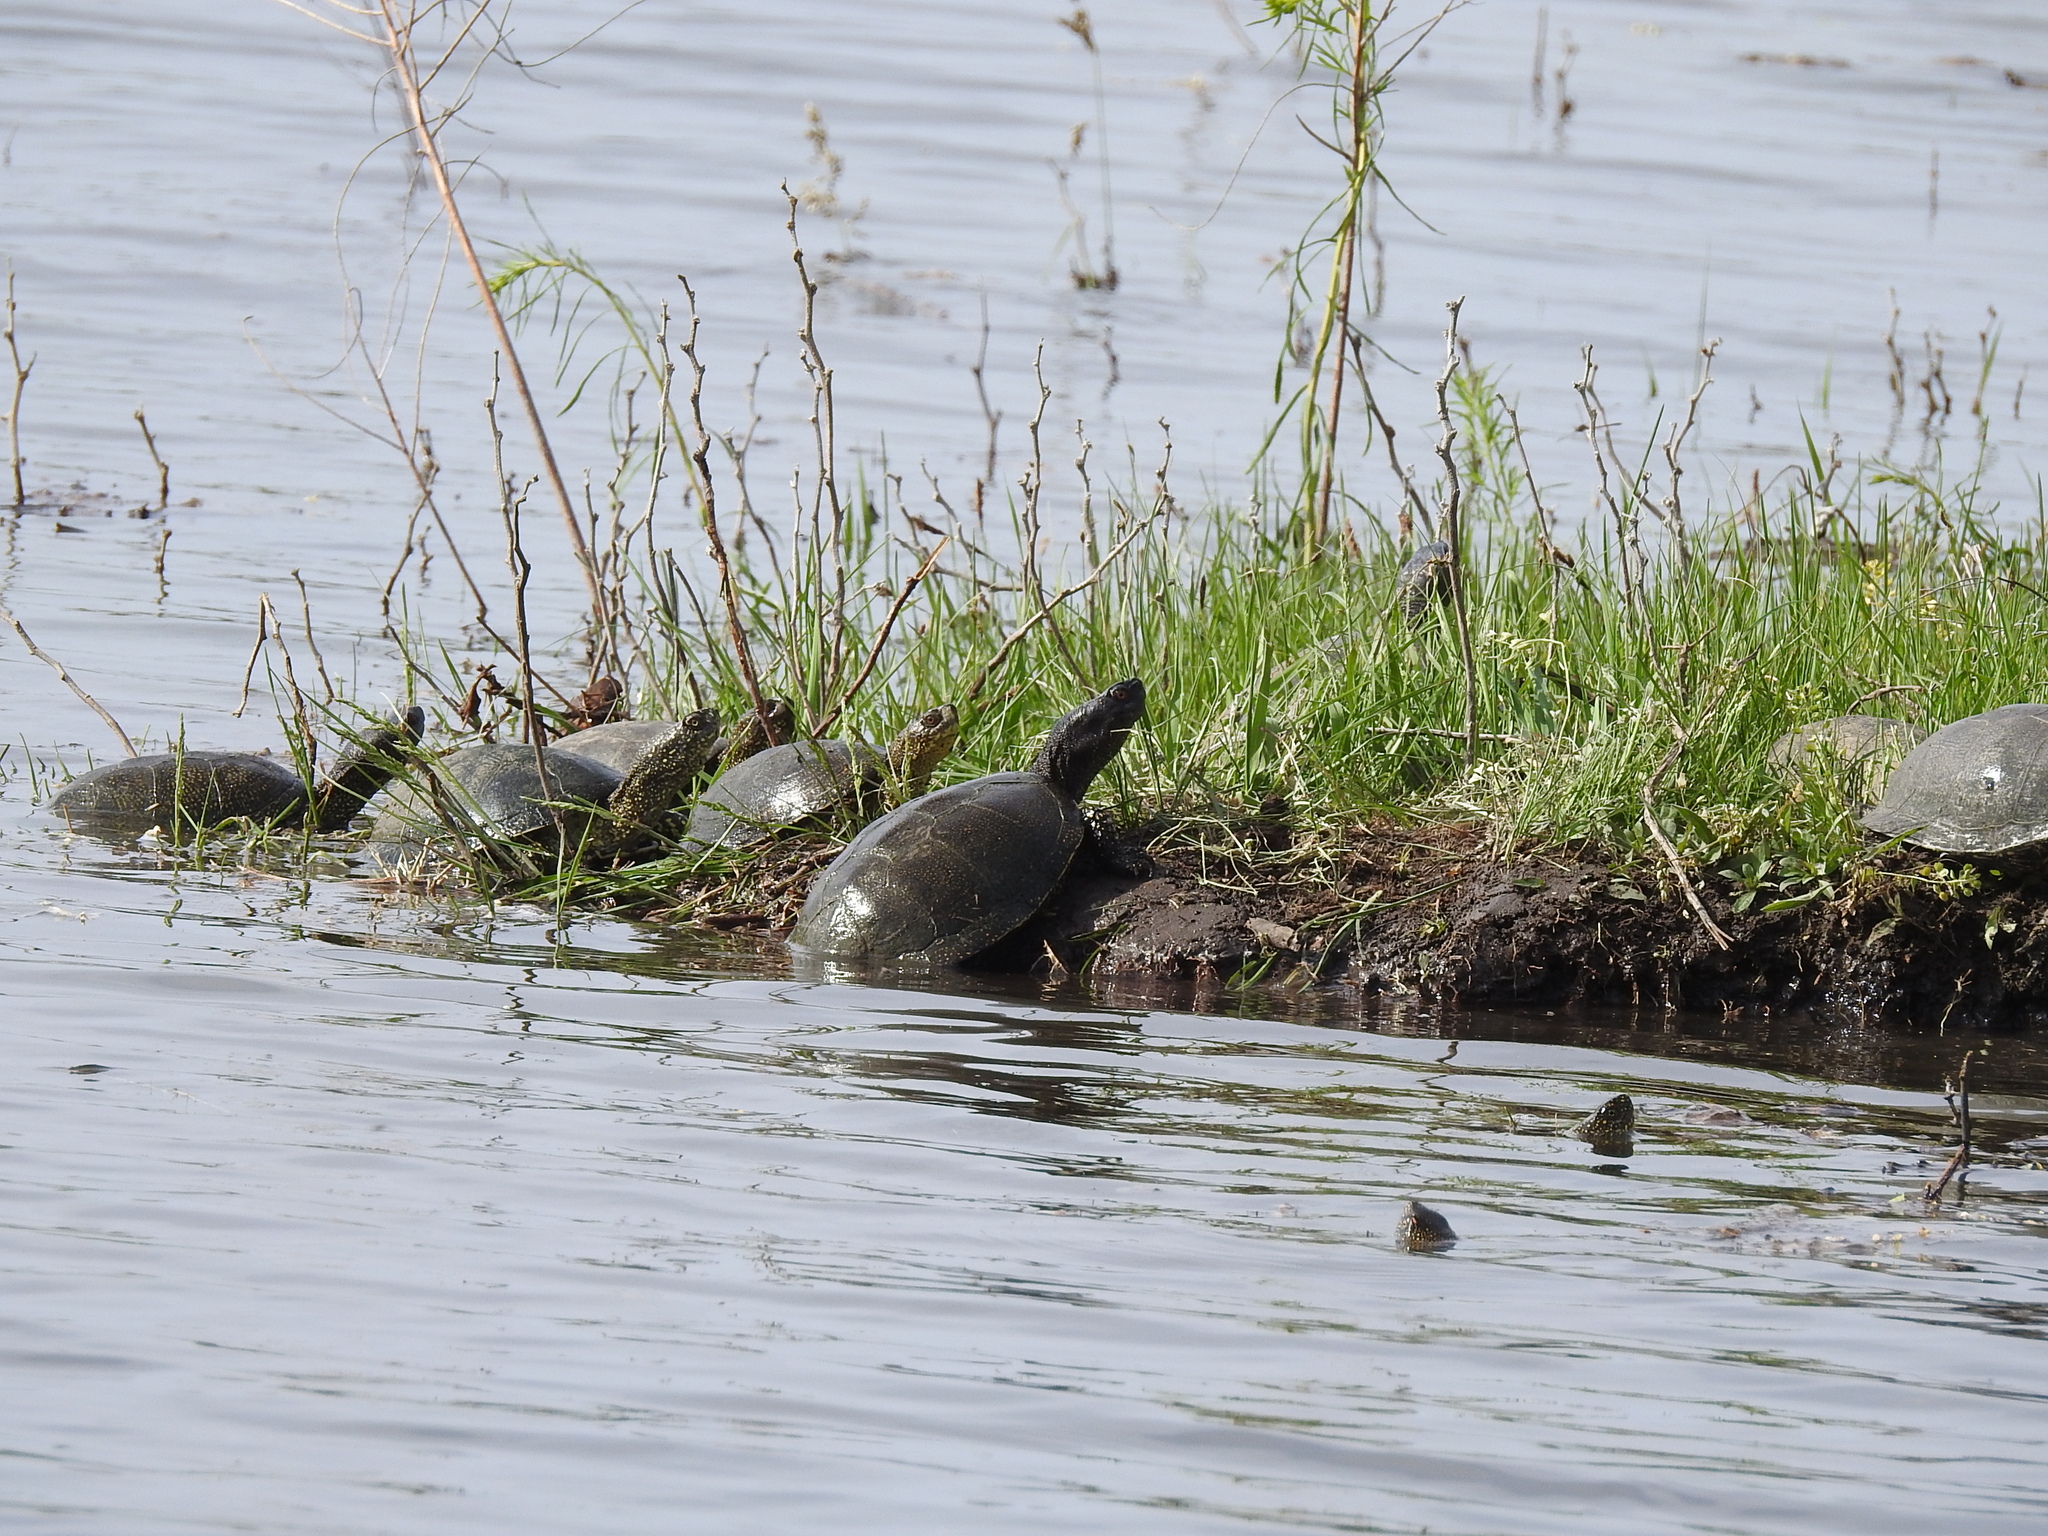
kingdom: Animalia
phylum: Chordata
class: Testudines
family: Emydidae
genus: Emys
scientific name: Emys orbicularis
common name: European pond turtle
